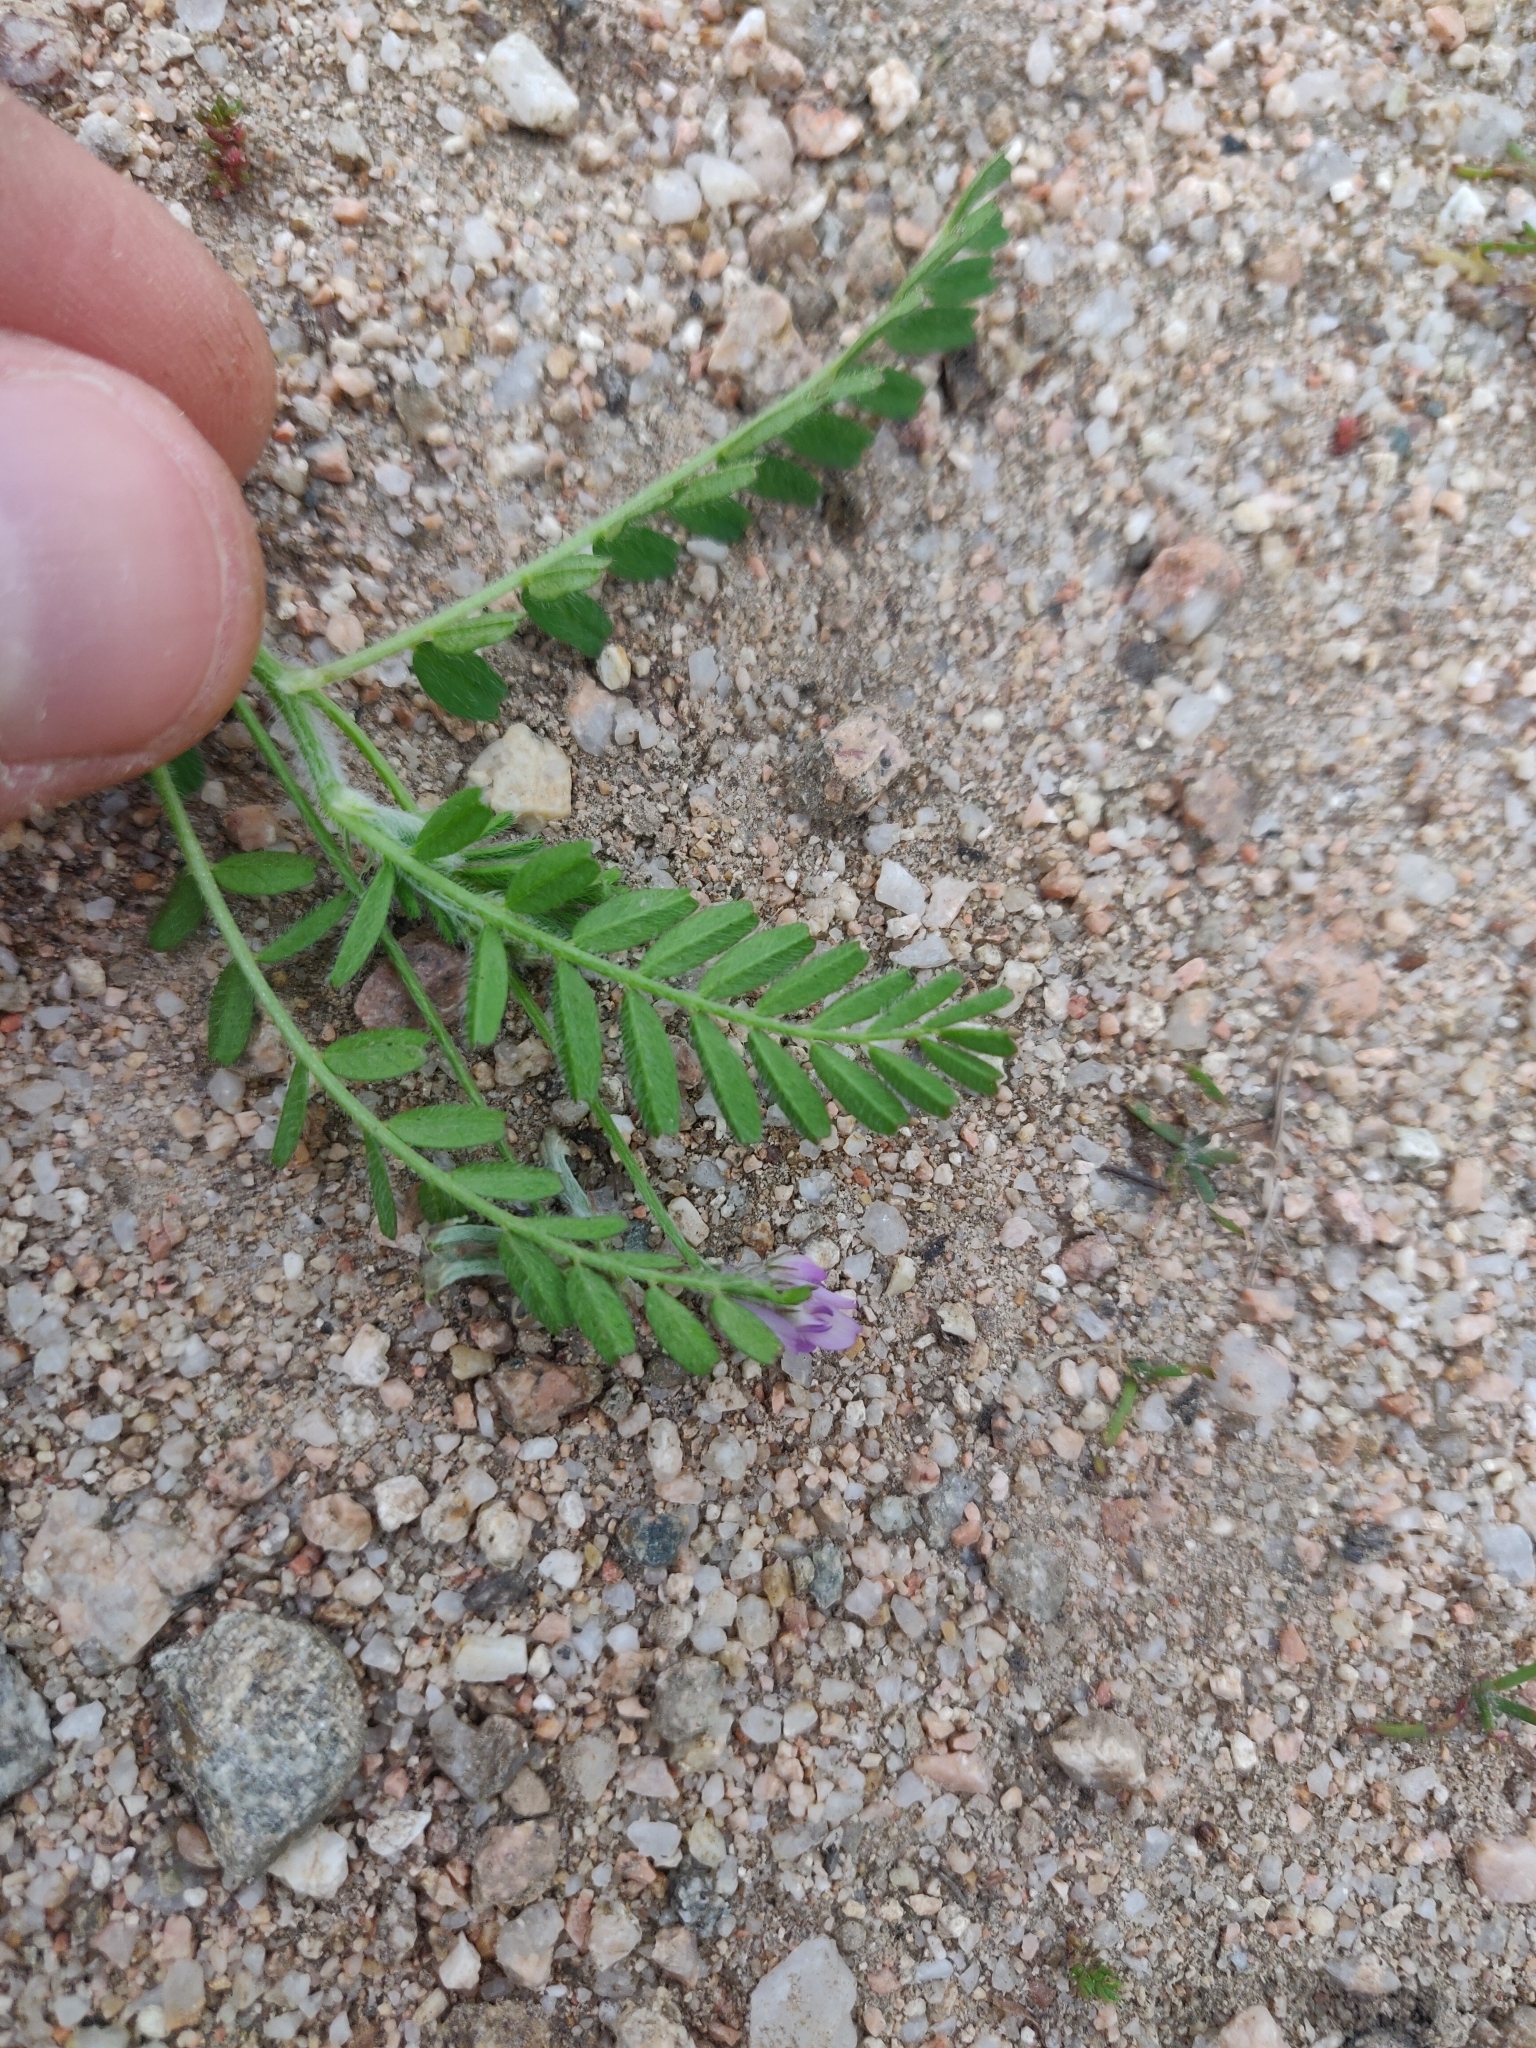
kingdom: Plantae
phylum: Tracheophyta
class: Magnoliopsida
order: Fabales
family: Fabaceae
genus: Biserrula
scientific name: Biserrula pelecinus
